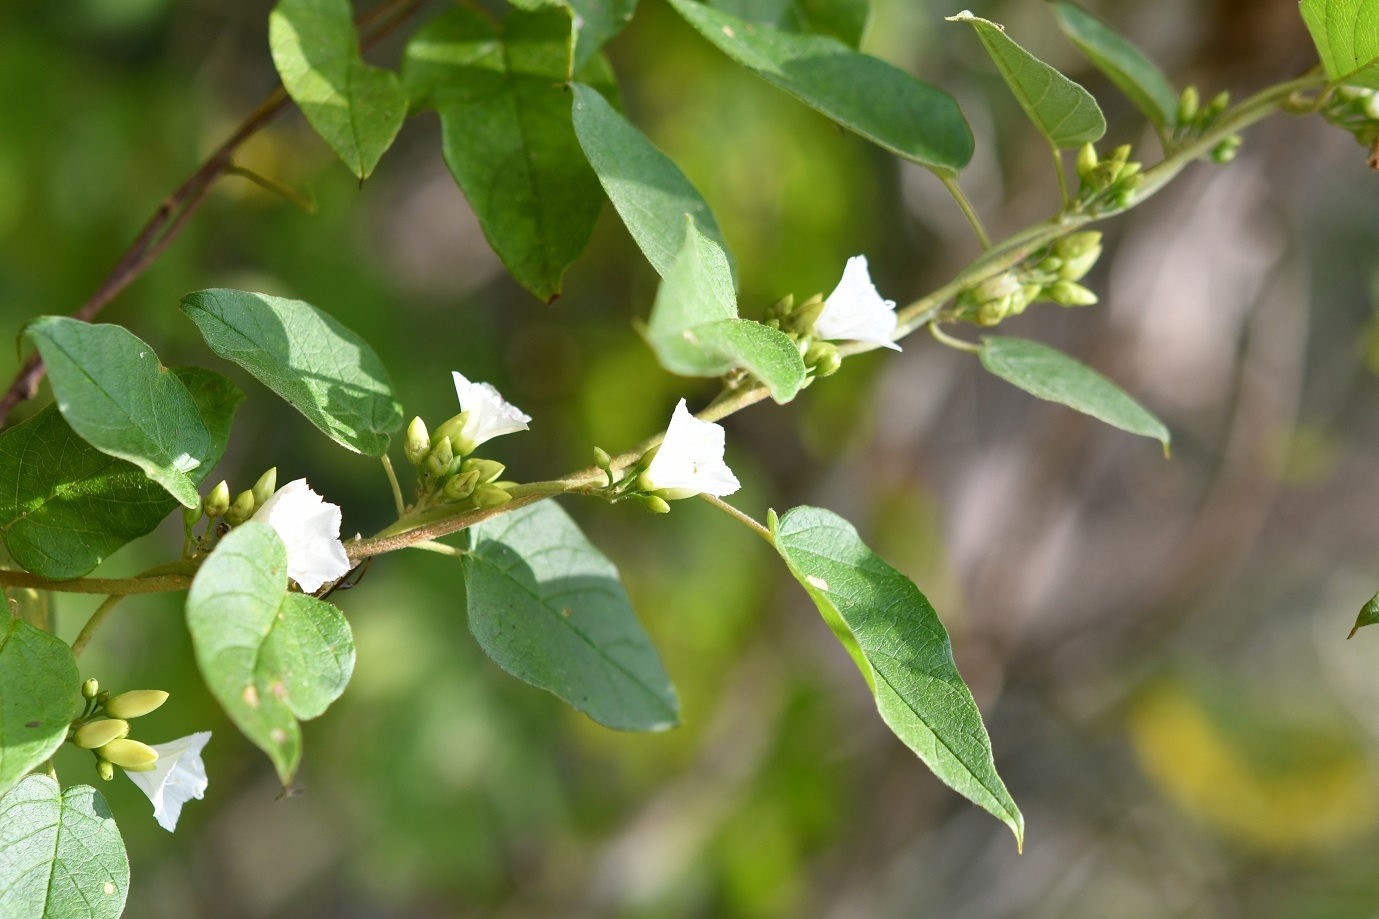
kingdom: Plantae
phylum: Tracheophyta
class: Magnoliopsida
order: Solanales
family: Convolvulaceae
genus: Jacquemontia
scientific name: Jacquemontia nodiflora
